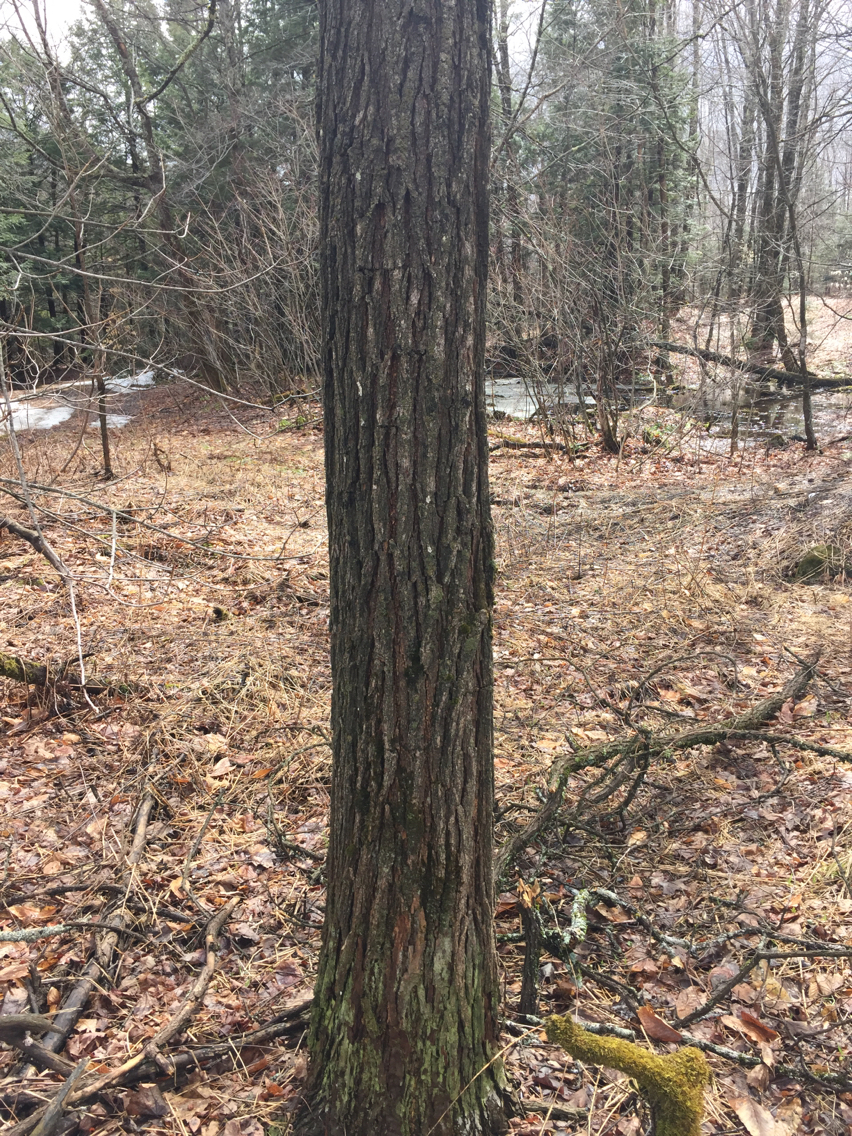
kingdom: Plantae
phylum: Tracheophyta
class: Magnoliopsida
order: Fabales
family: Fabaceae
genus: Robinia
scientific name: Robinia pseudoacacia
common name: Black locust
